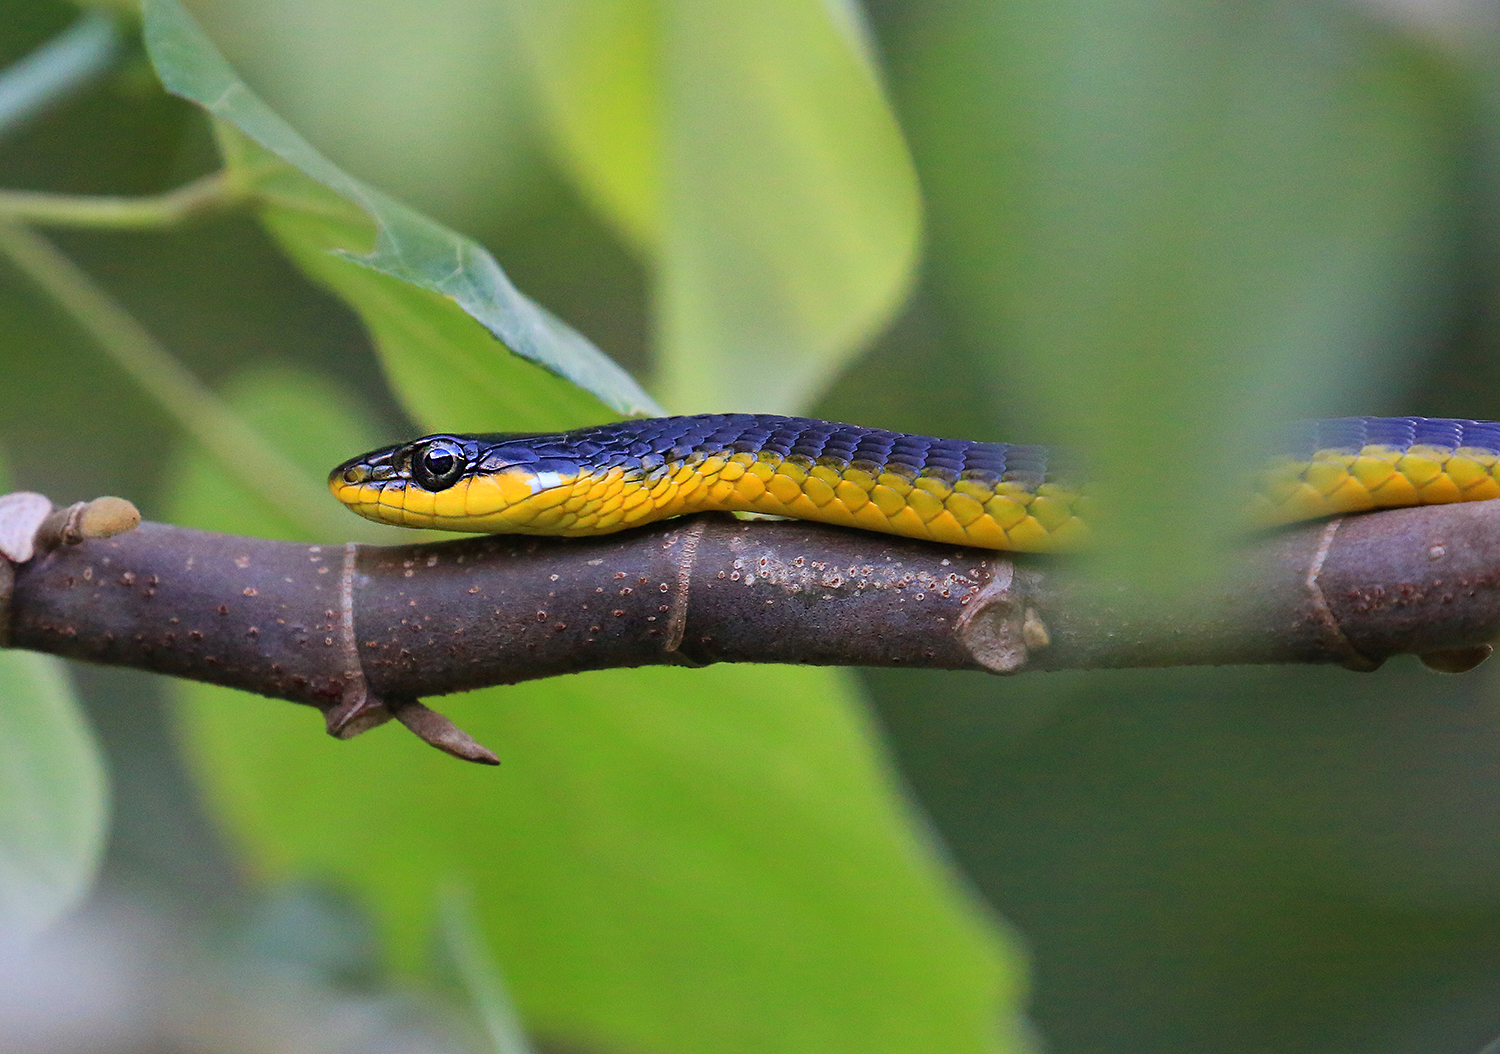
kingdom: Animalia
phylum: Chordata
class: Squamata
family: Colubridae
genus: Dendrelaphis
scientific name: Dendrelaphis punctulatus
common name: Common tree snake
